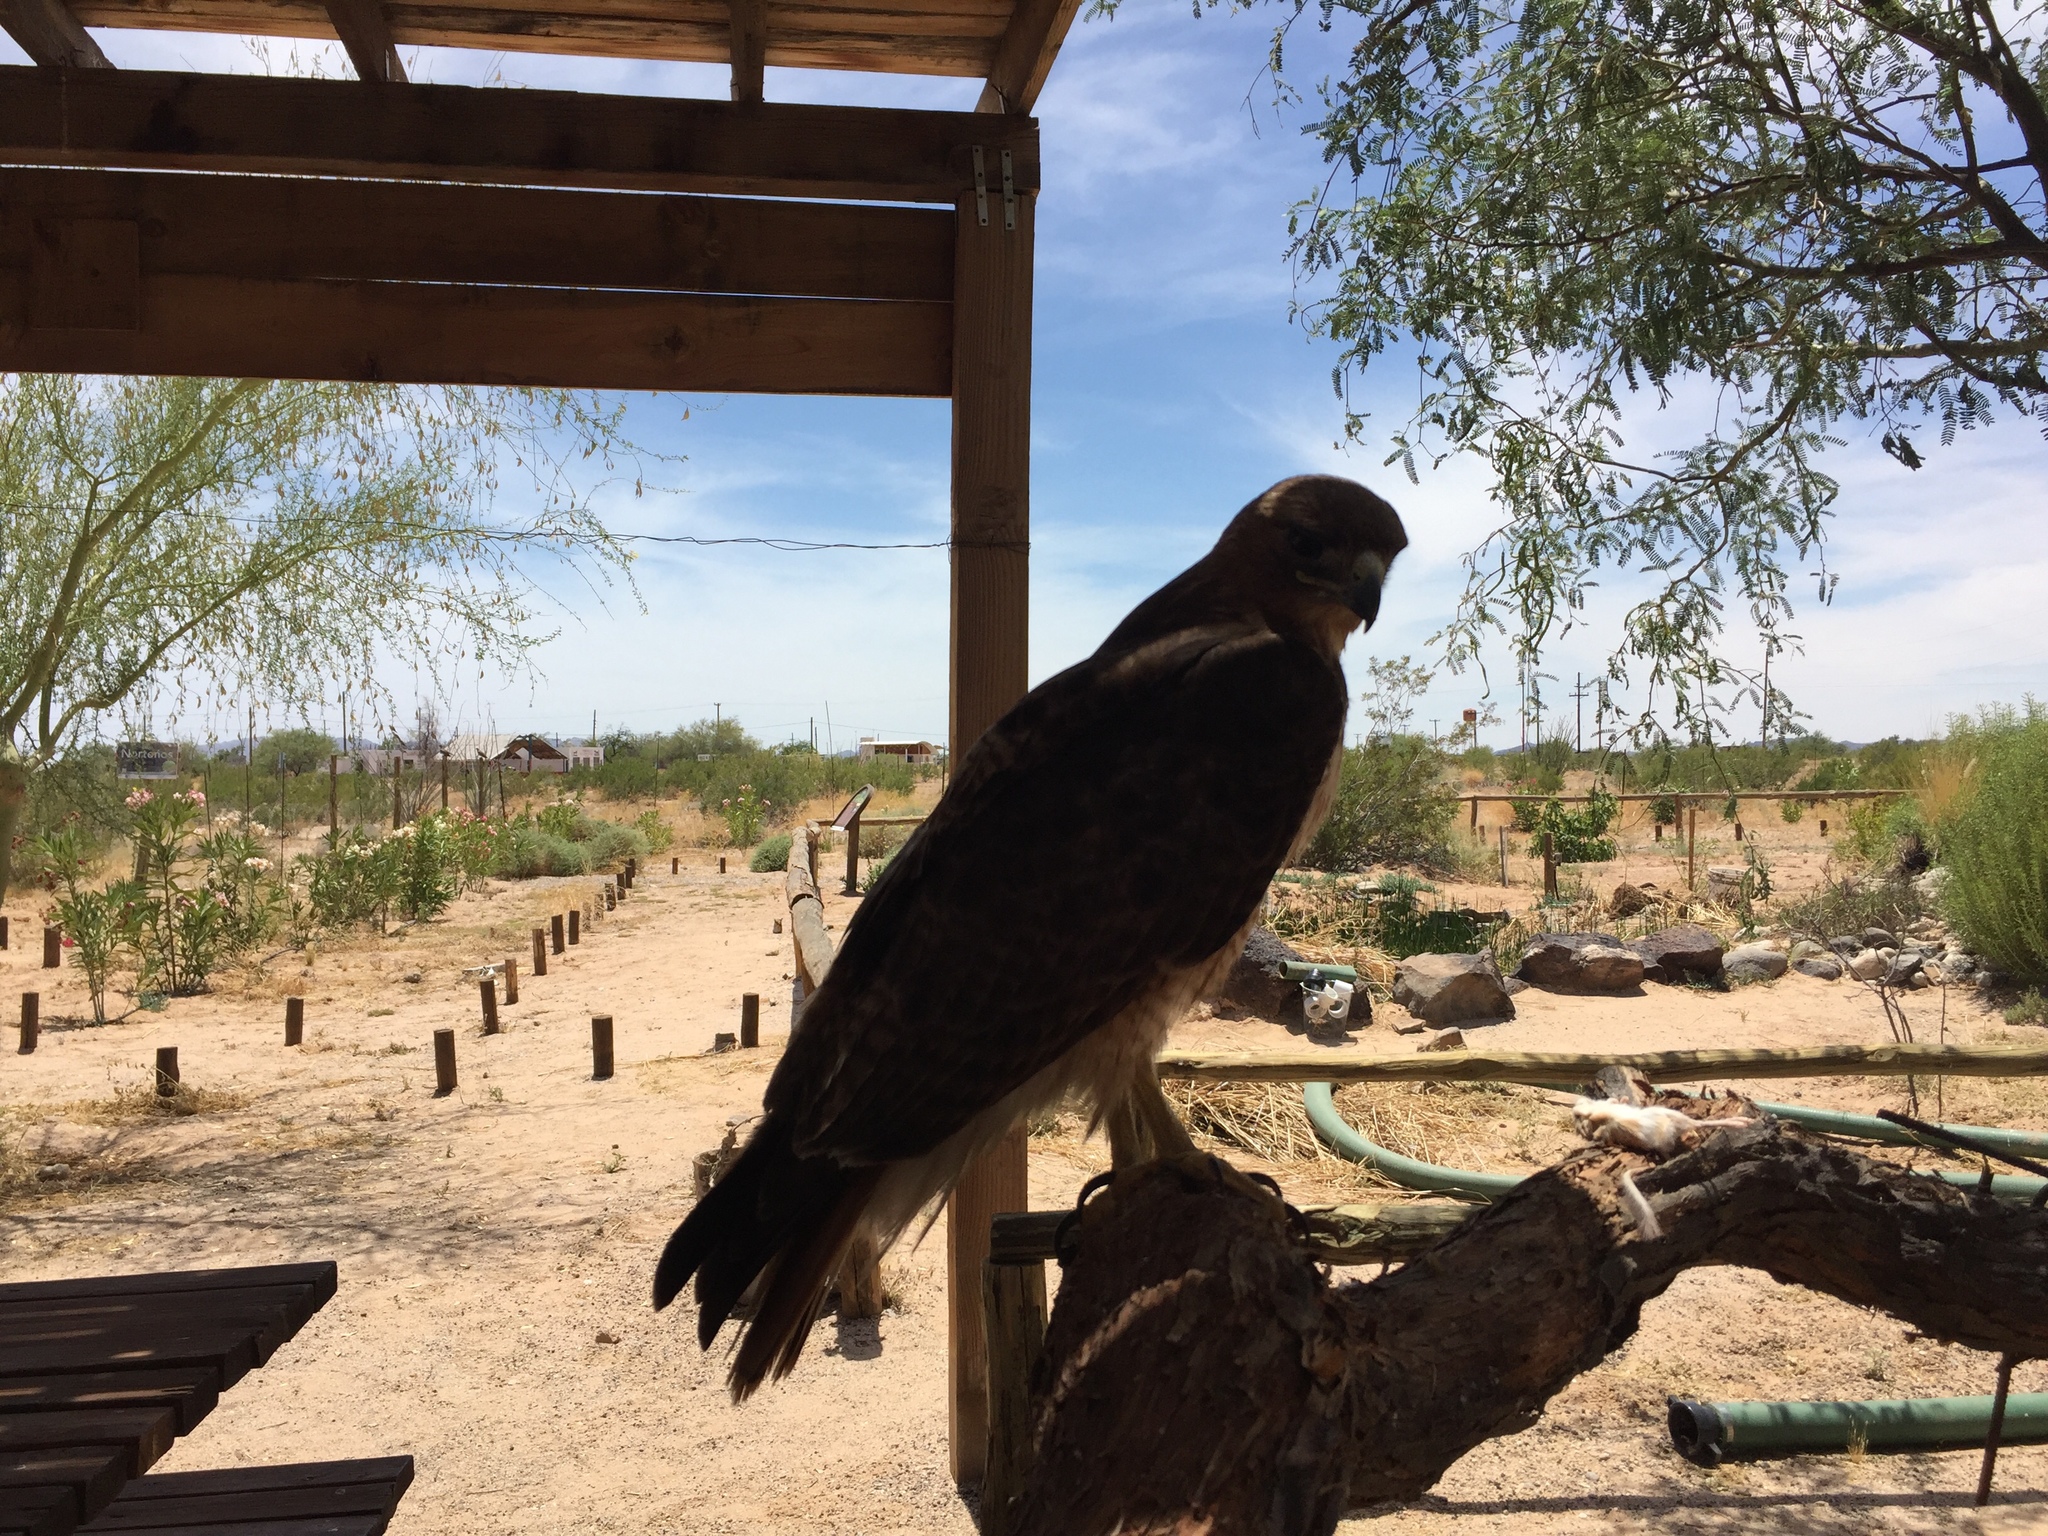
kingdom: Animalia
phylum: Chordata
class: Aves
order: Accipitriformes
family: Accipitridae
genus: Buteo
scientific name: Buteo jamaicensis
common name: Red-tailed hawk
